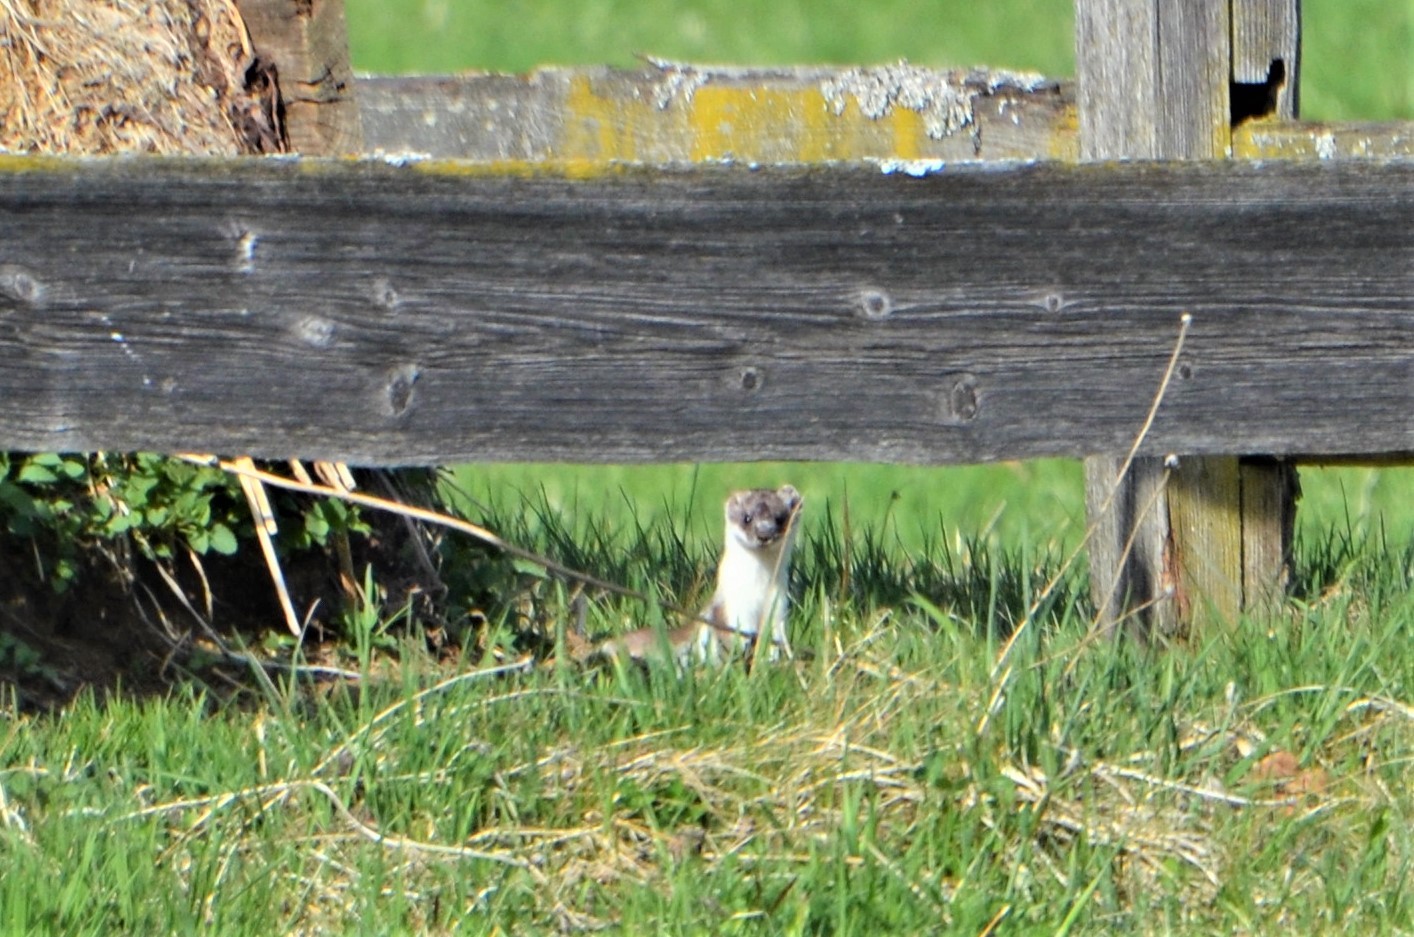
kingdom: Animalia
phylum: Chordata
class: Mammalia
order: Carnivora
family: Mustelidae
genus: Mustela
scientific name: Mustela erminea
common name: Stoat
